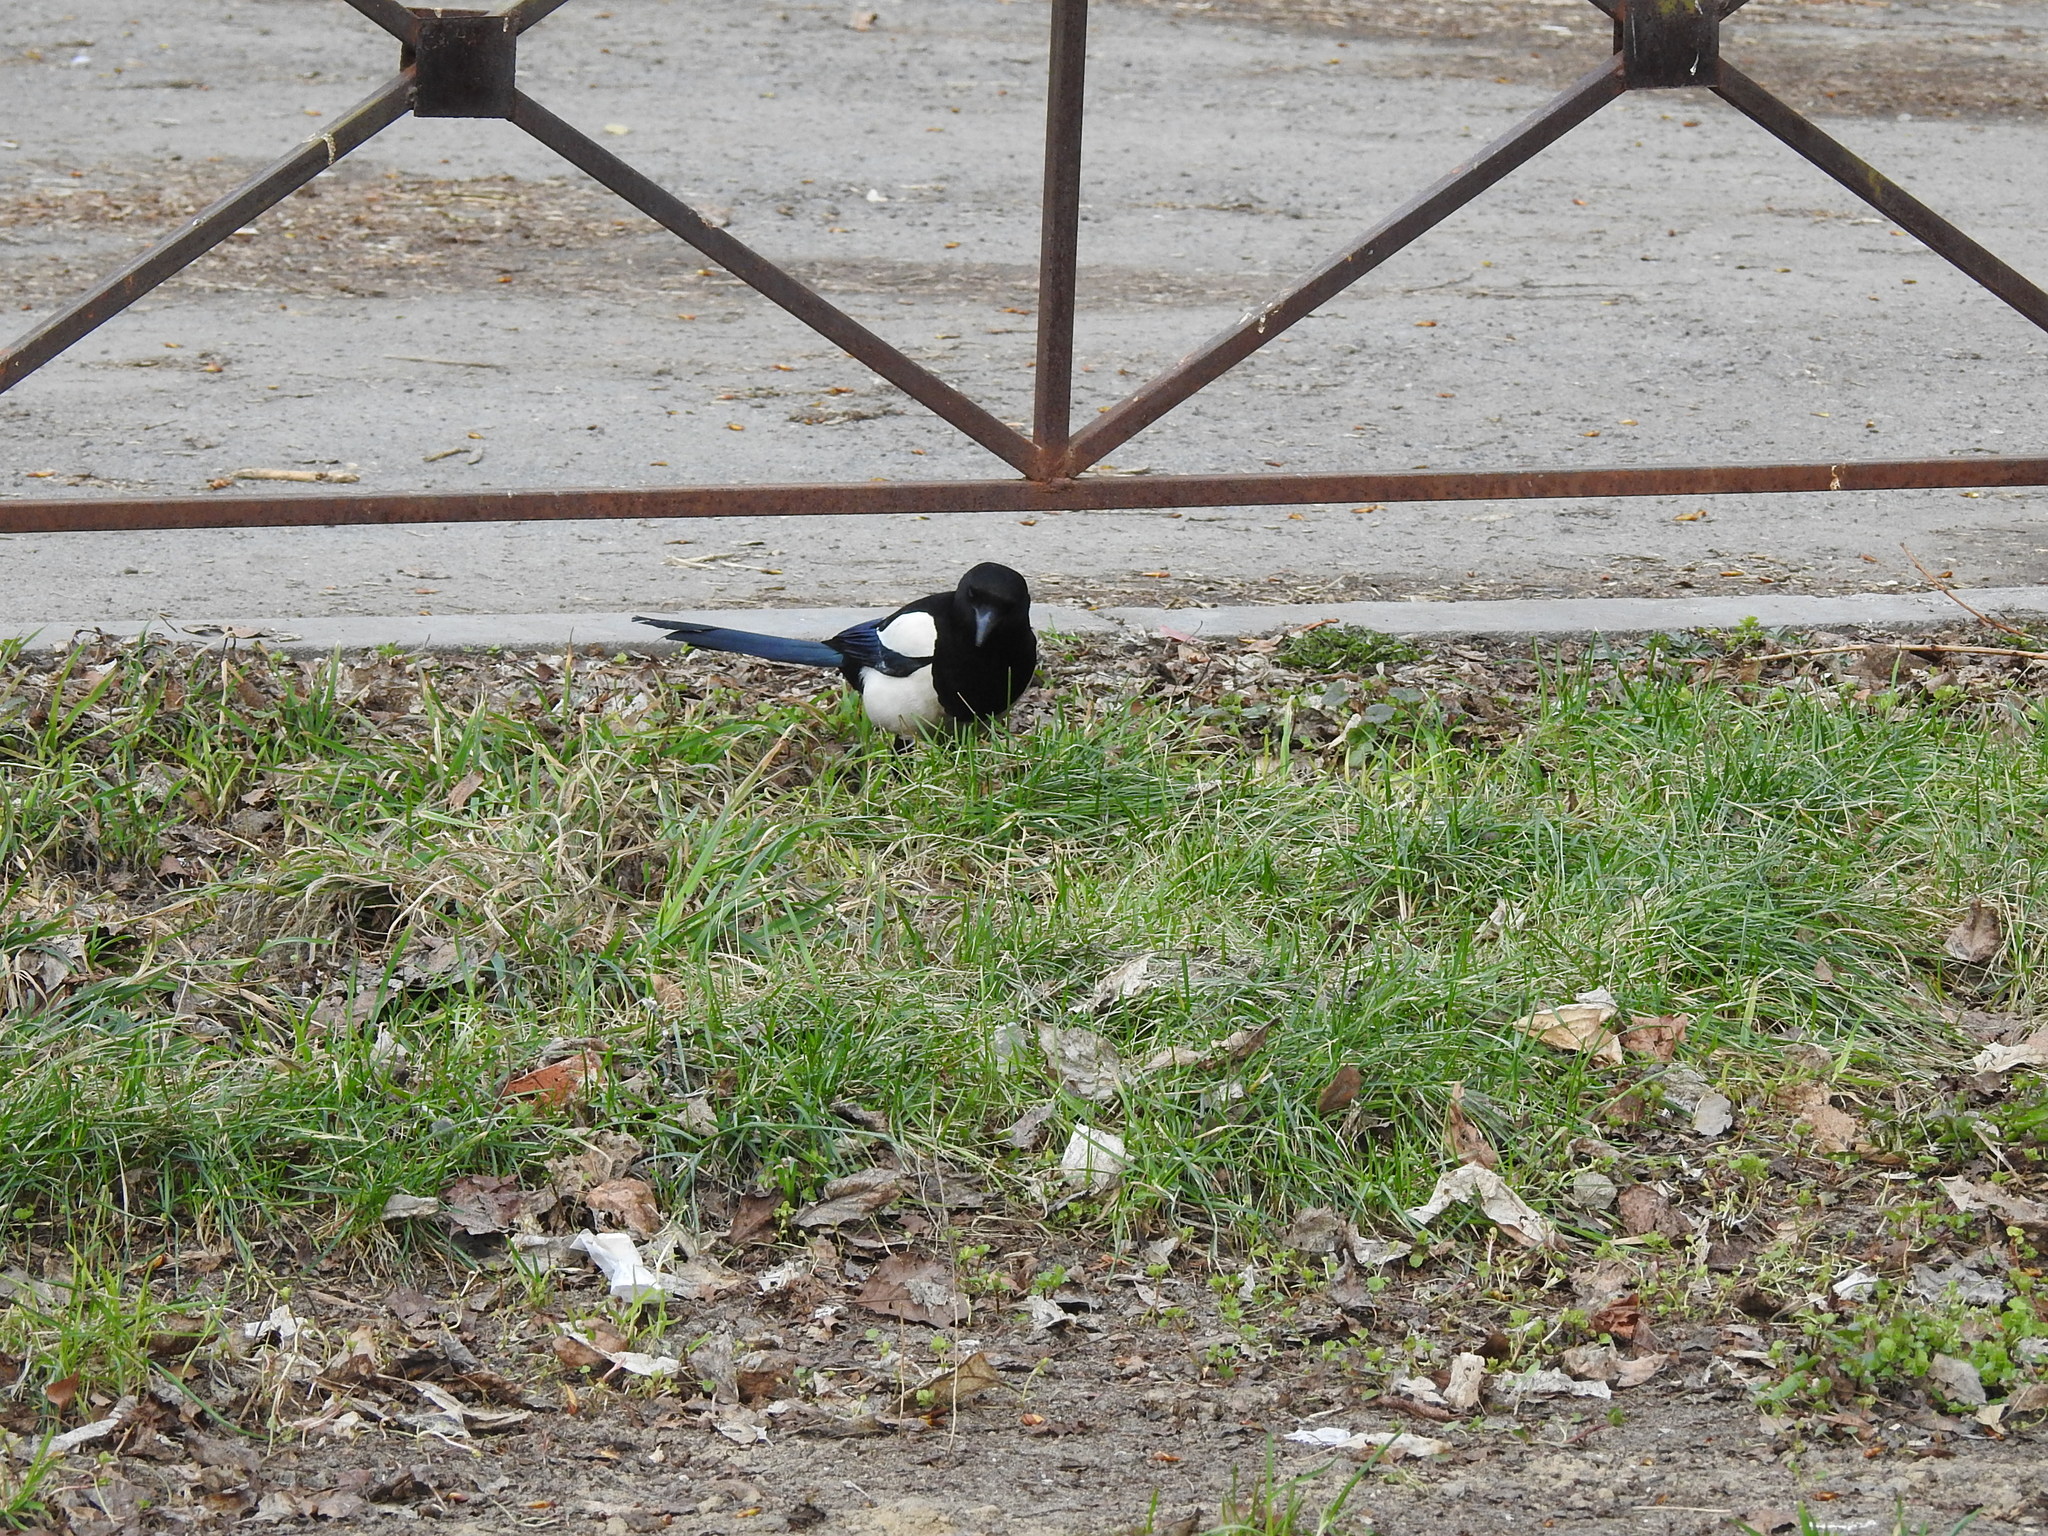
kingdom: Animalia
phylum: Chordata
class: Aves
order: Passeriformes
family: Corvidae
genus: Pica
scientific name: Pica pica
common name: Eurasian magpie
